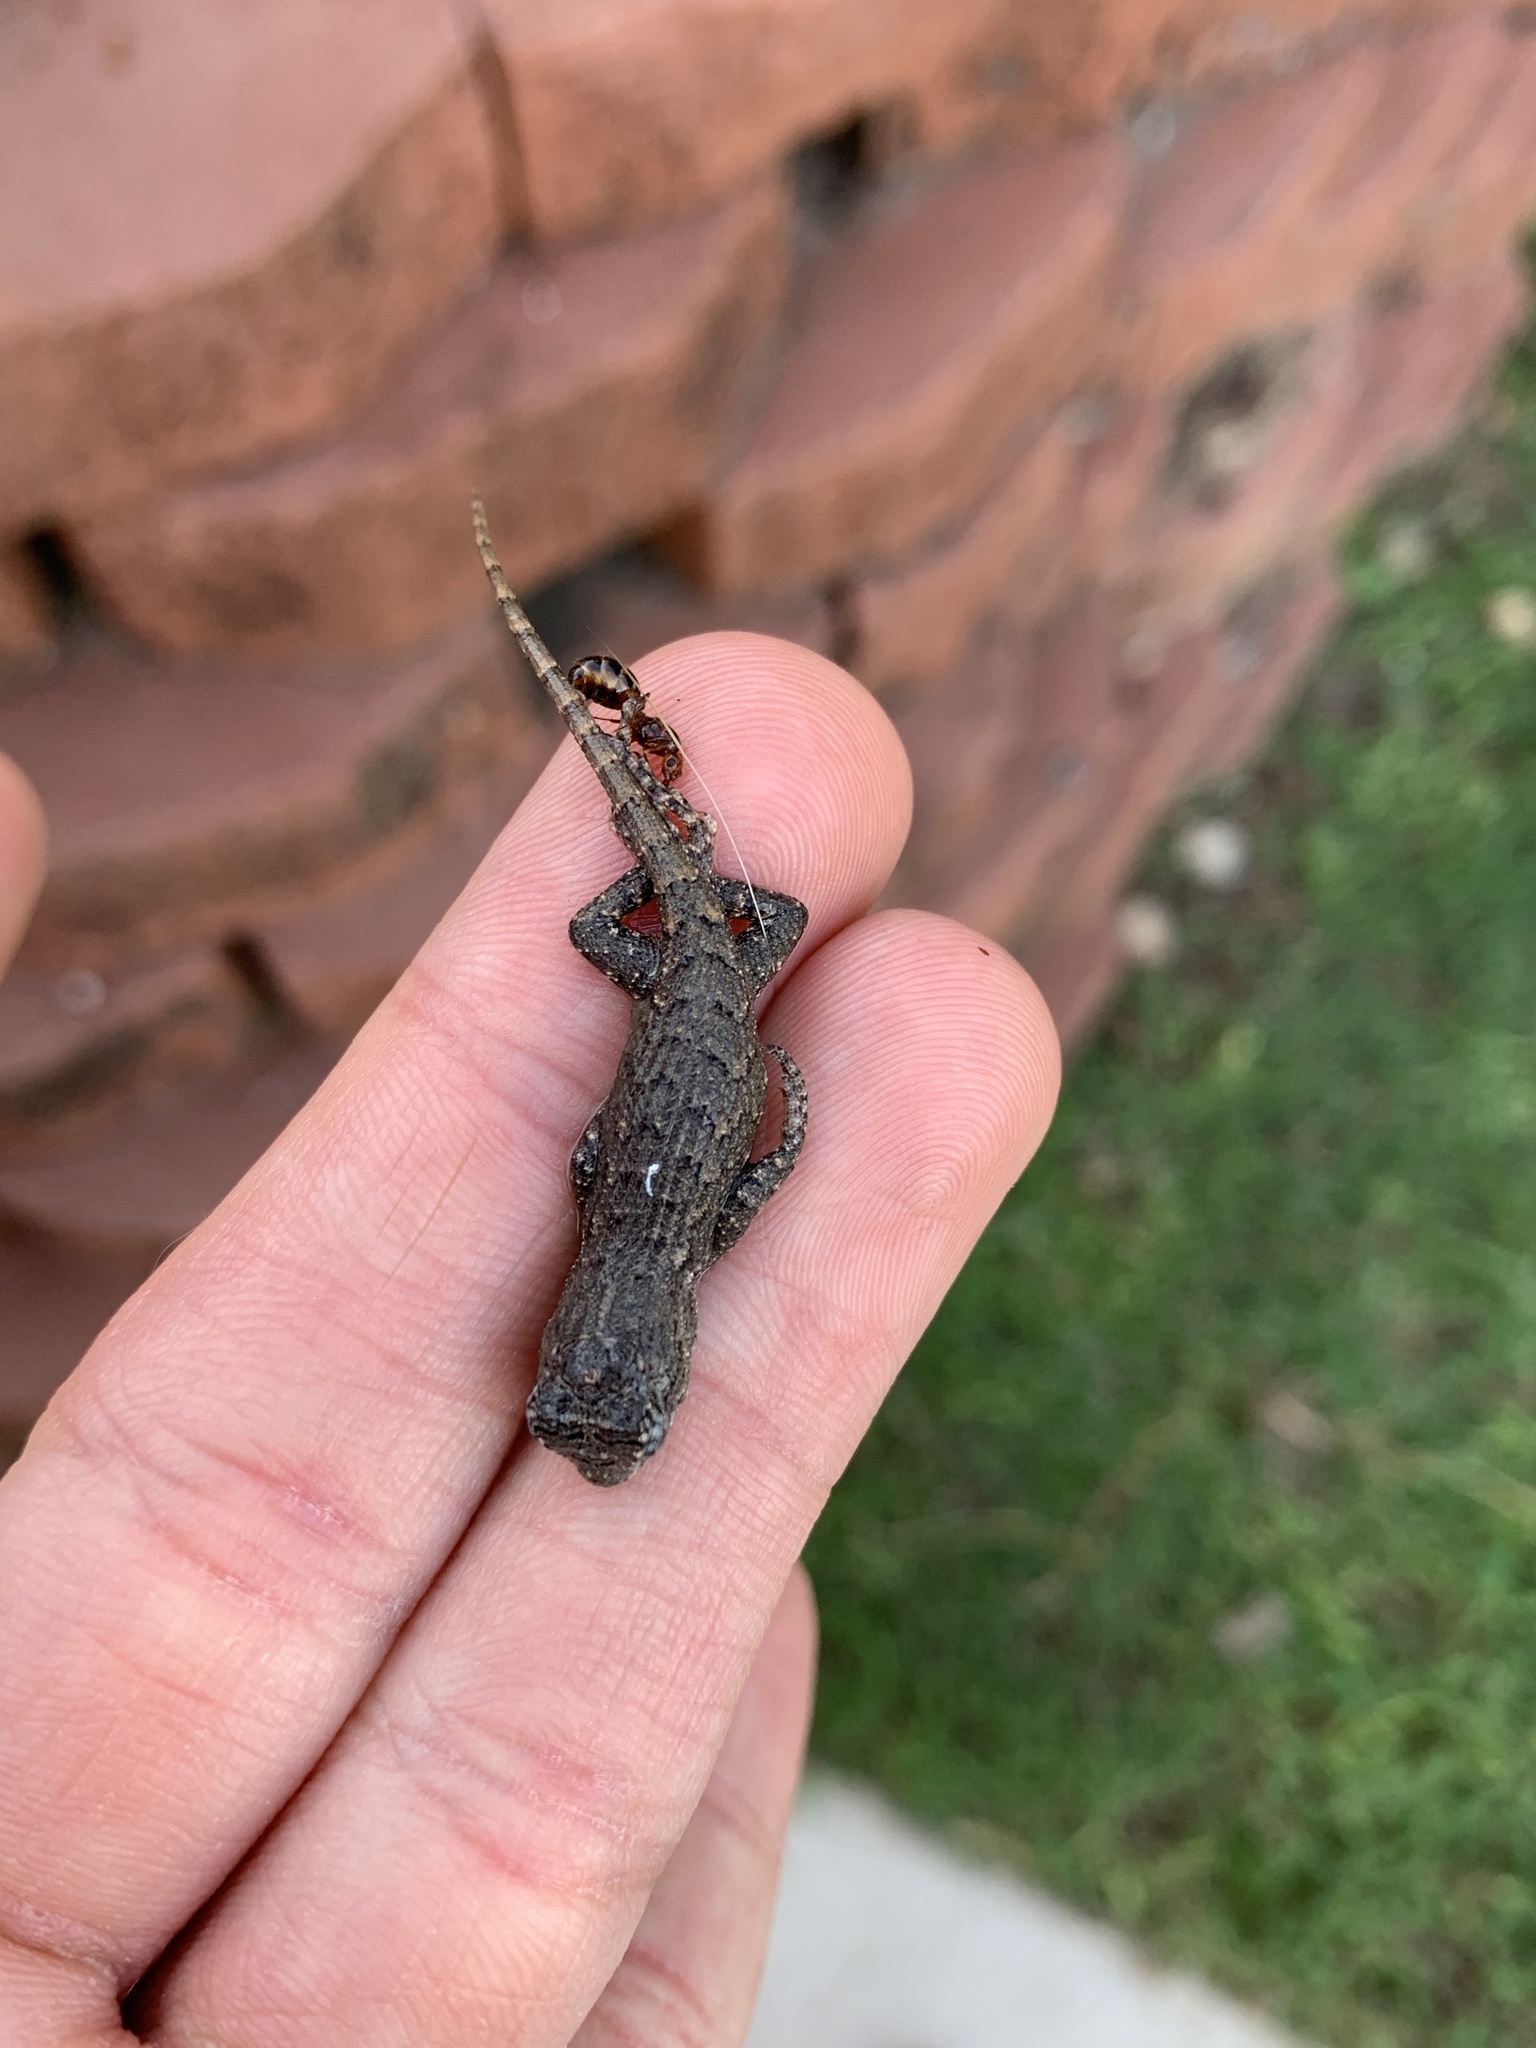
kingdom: Animalia
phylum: Chordata
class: Squamata
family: Phrynosomatidae
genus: Sceloporus
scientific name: Sceloporus undulatus
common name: Eastern fence lizard
